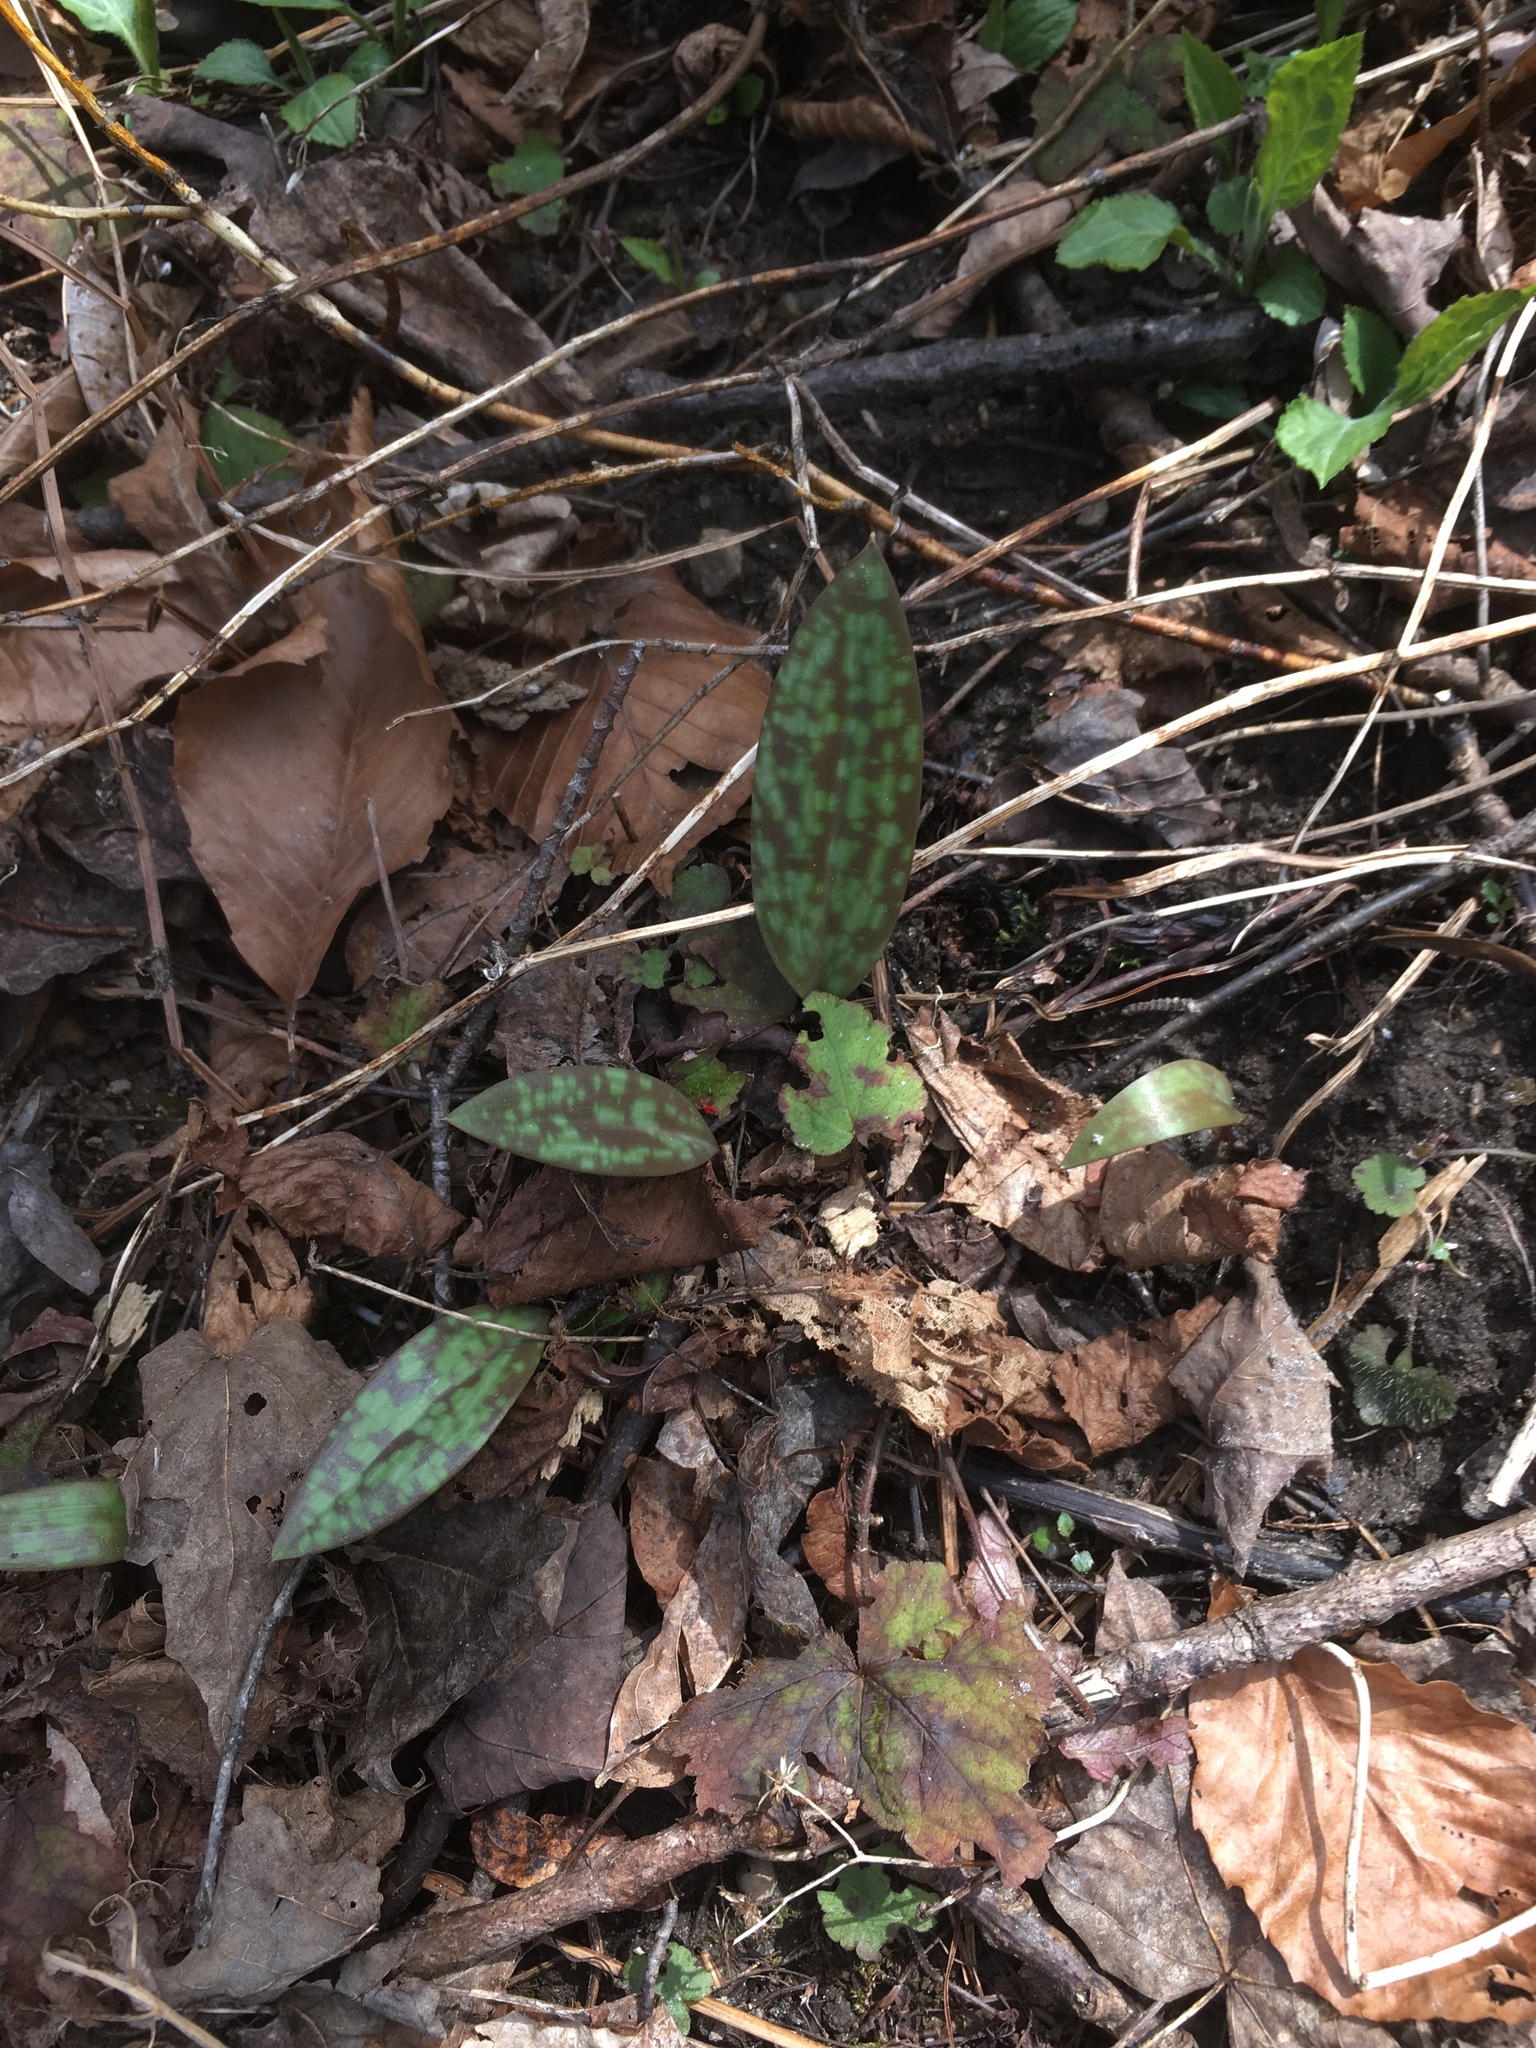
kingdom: Plantae
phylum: Tracheophyta
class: Liliopsida
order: Liliales
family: Liliaceae
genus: Erythronium
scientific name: Erythronium americanum
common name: Yellow adder's-tongue
